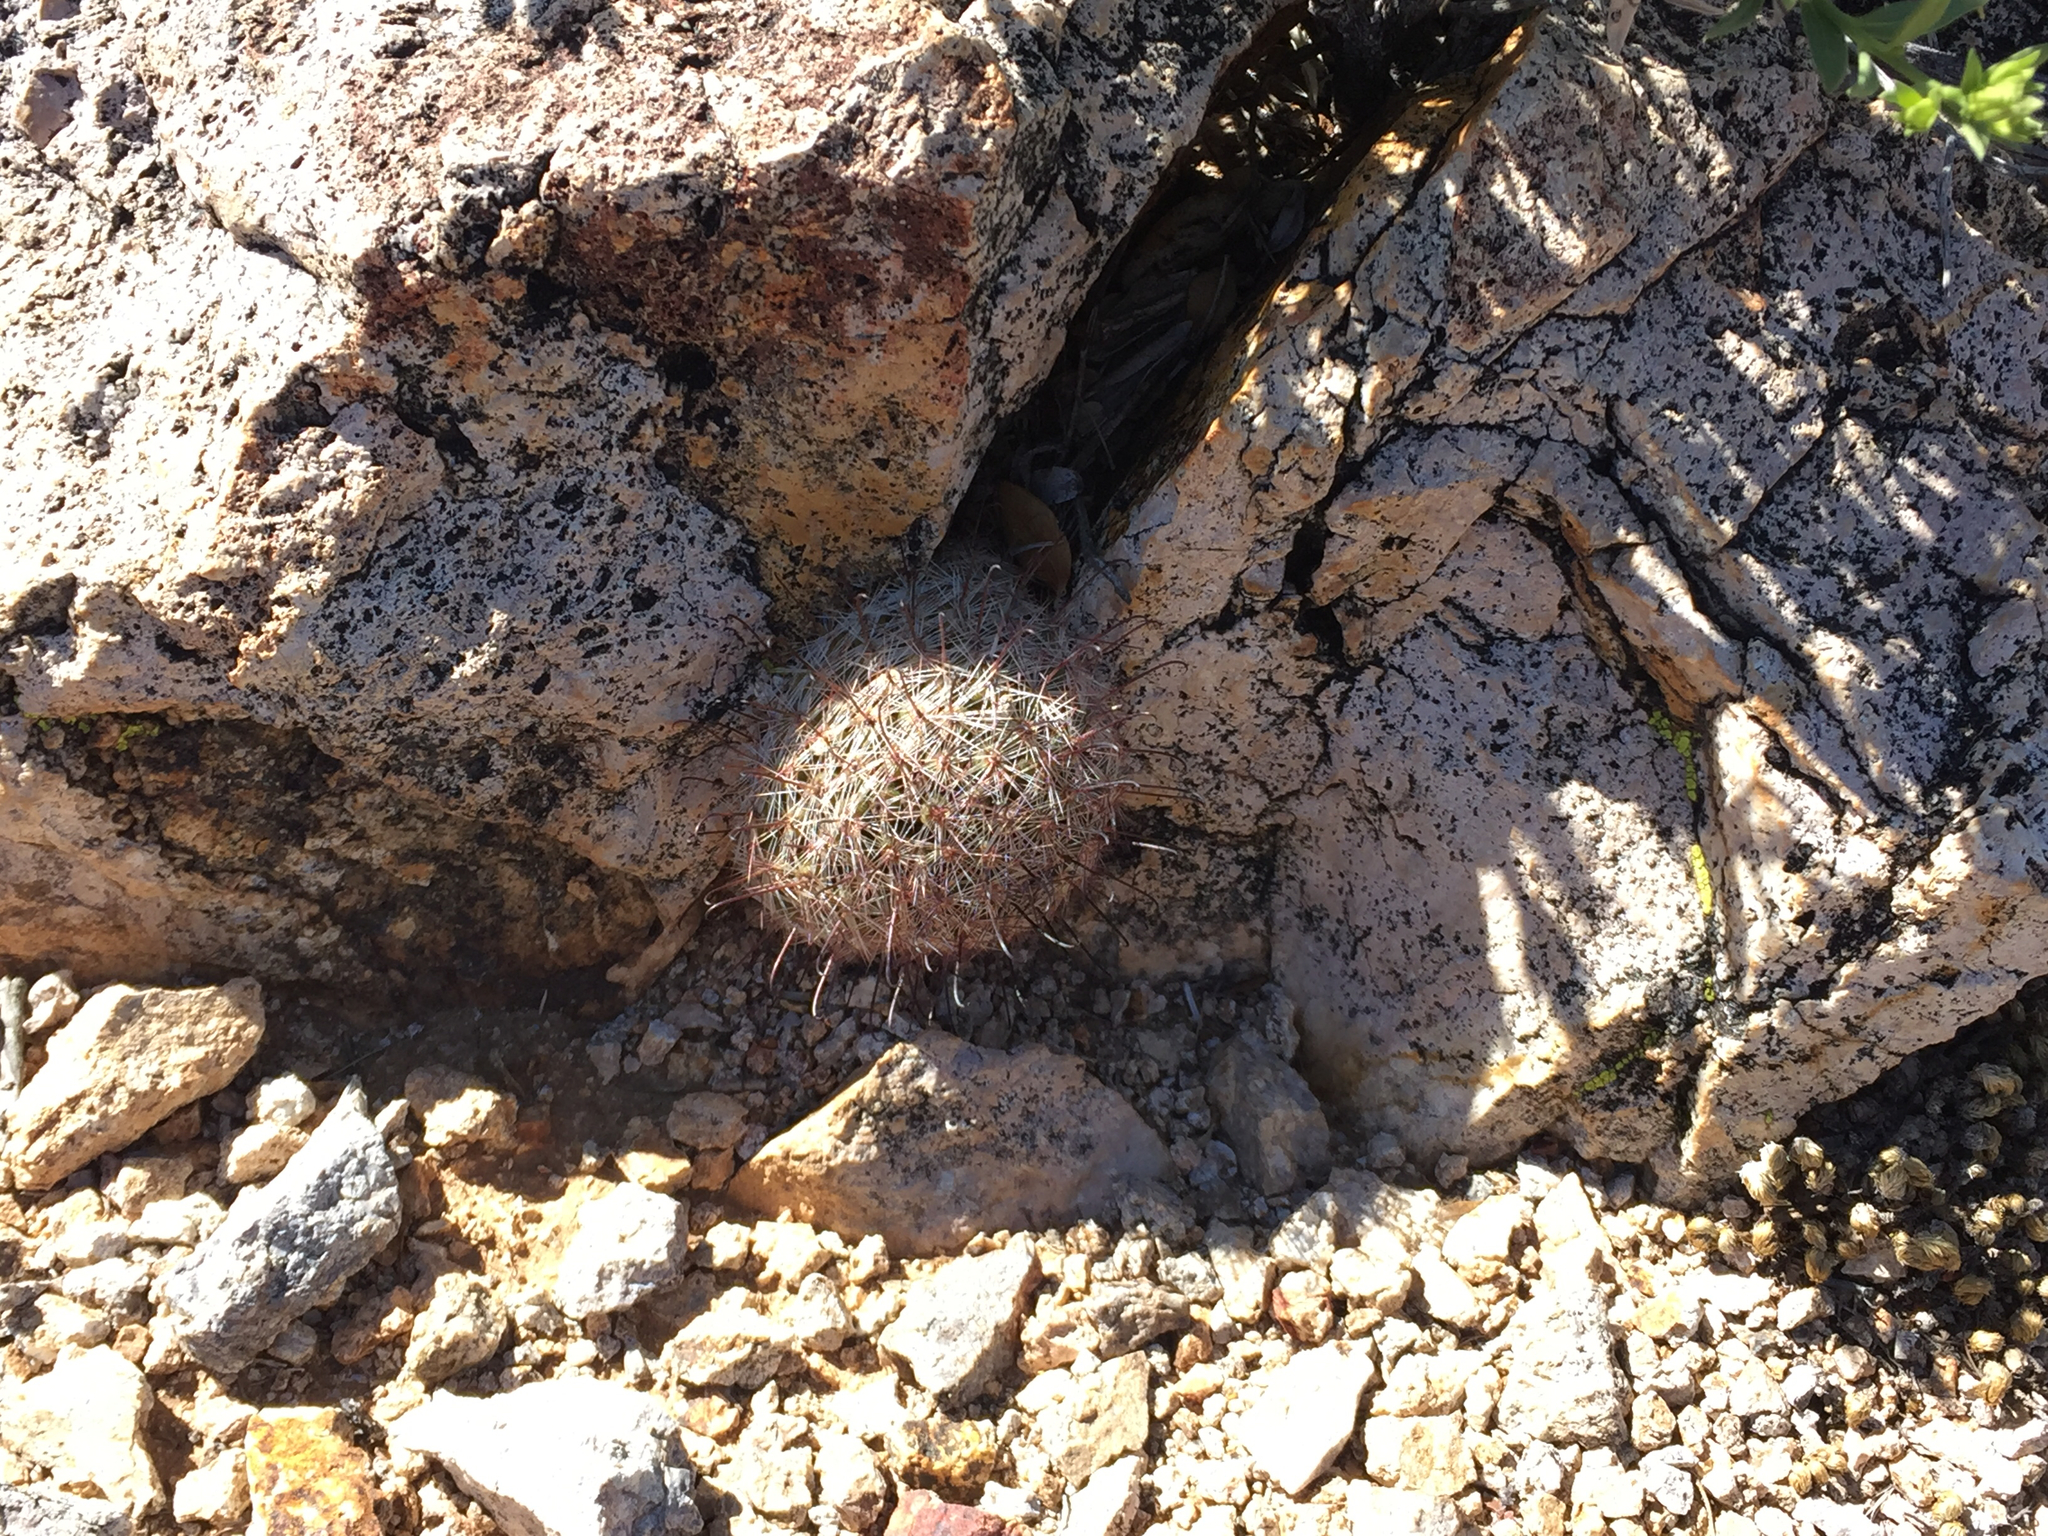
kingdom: Plantae
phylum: Tracheophyta
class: Magnoliopsida
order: Caryophyllales
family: Cactaceae
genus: Cochemiea
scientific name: Cochemiea grahamii
